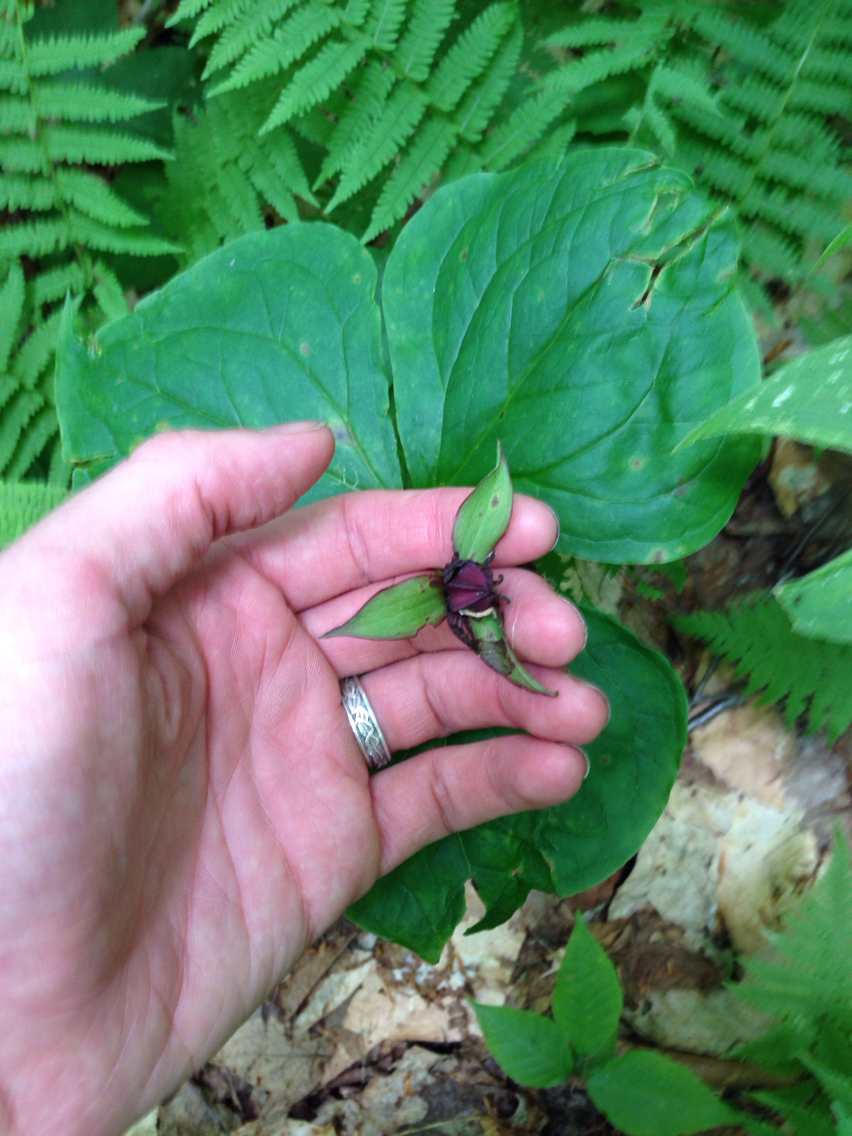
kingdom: Plantae
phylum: Tracheophyta
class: Liliopsida
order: Liliales
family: Melanthiaceae
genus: Trillium
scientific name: Trillium erectum
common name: Purple trillium
